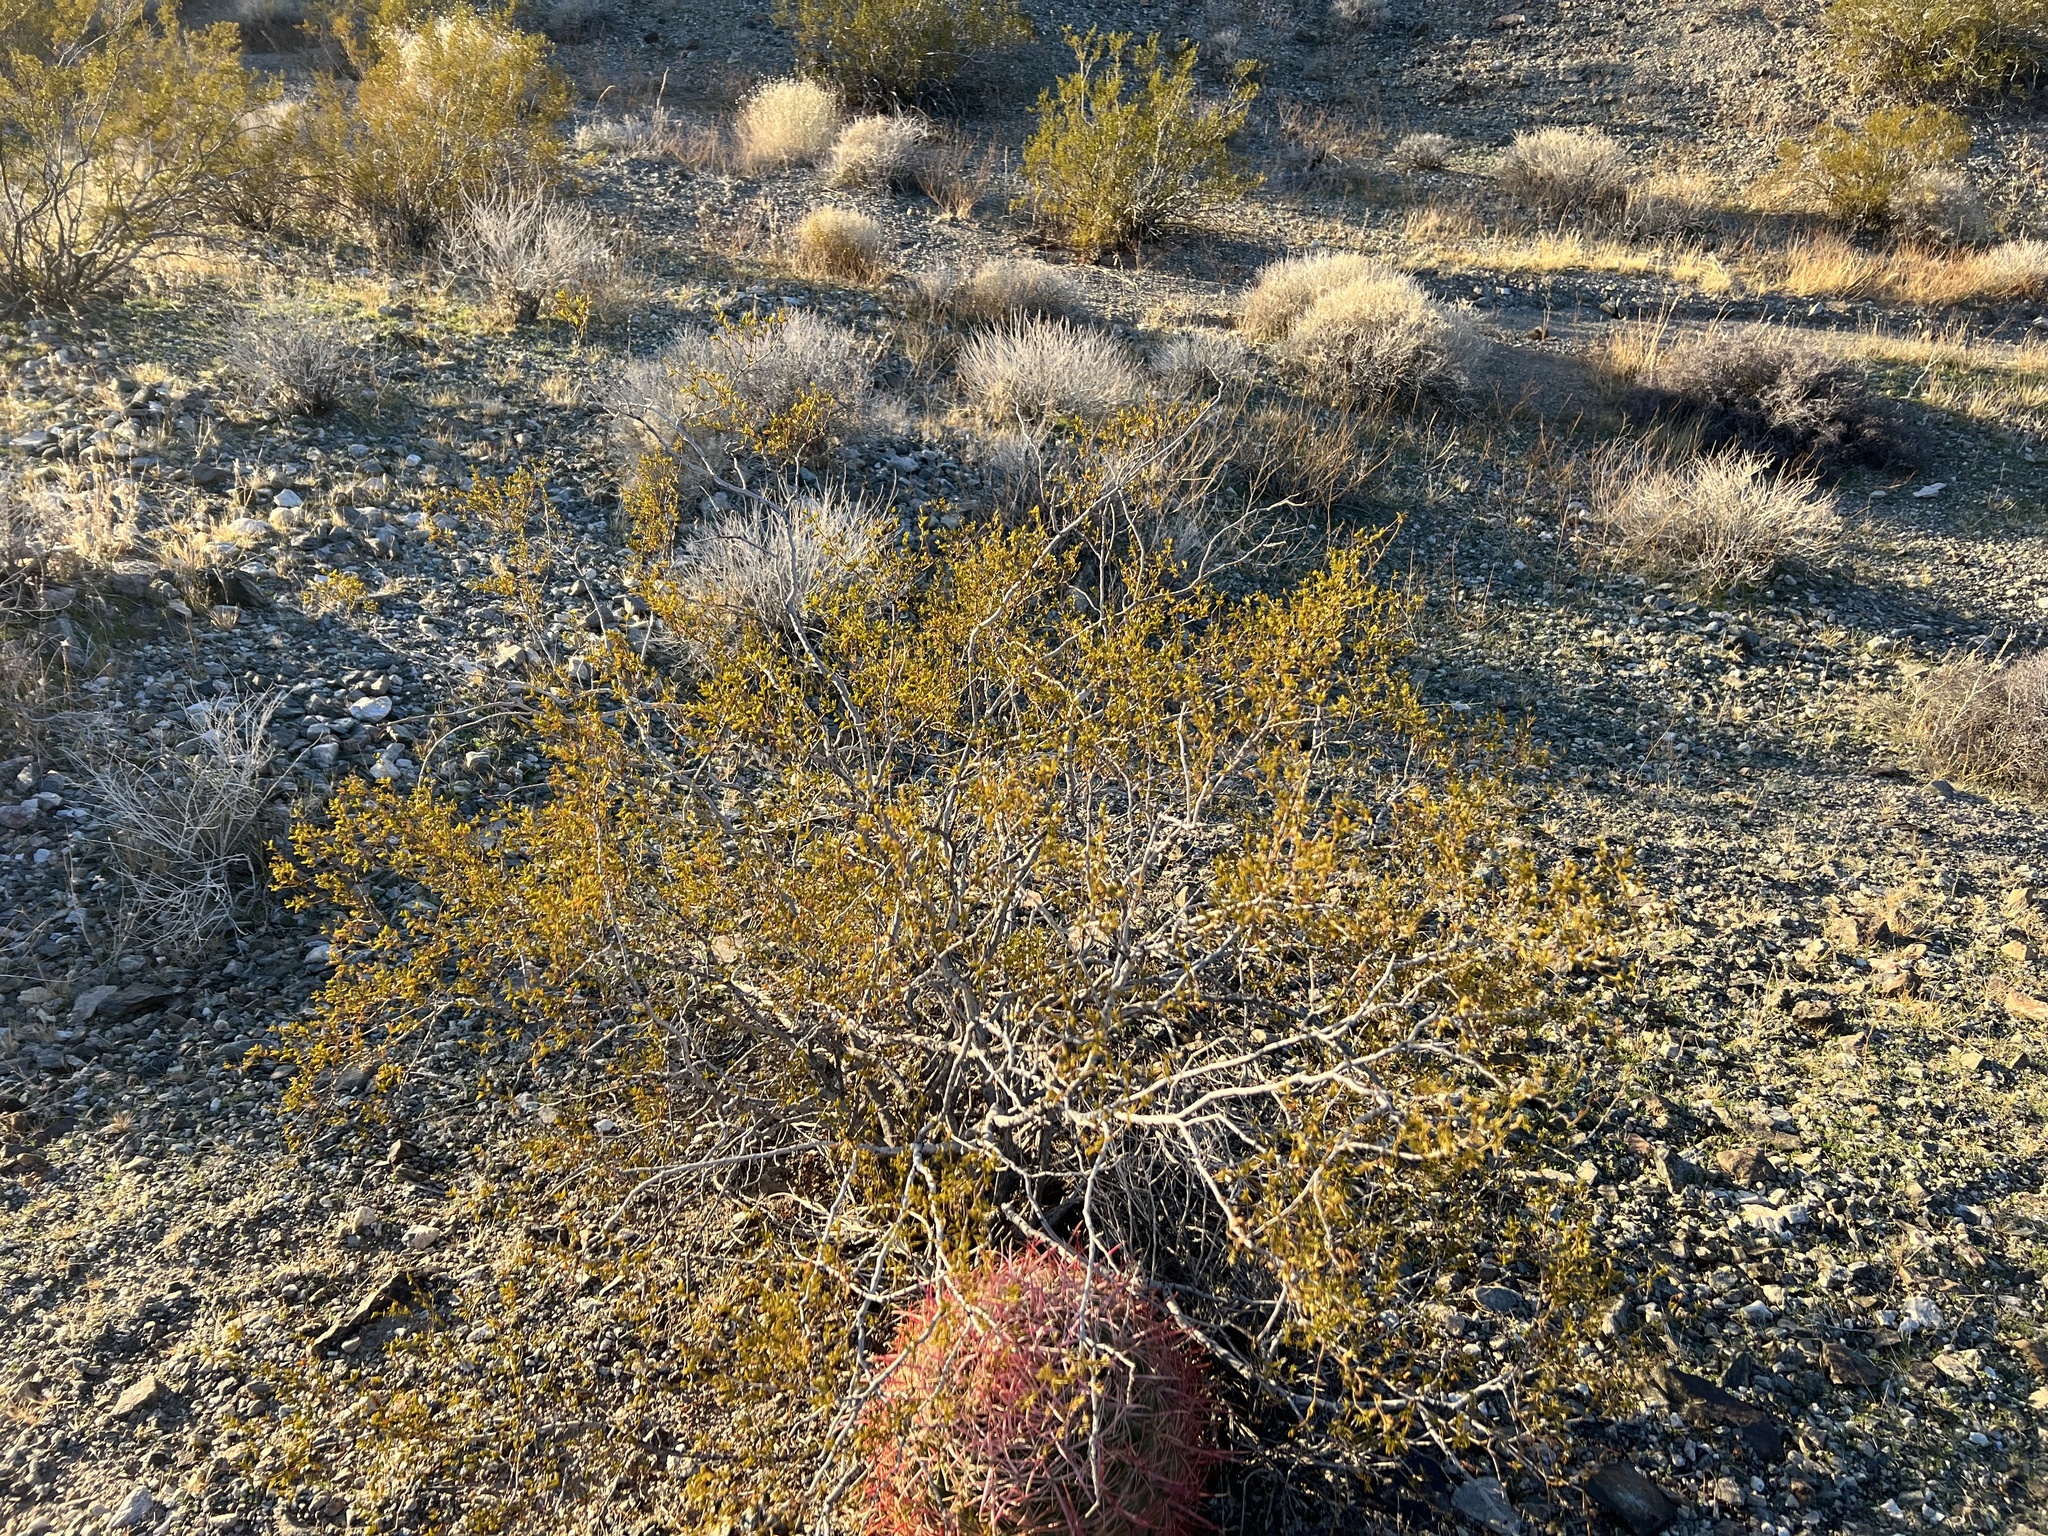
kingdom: Plantae
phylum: Tracheophyta
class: Magnoliopsida
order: Zygophyllales
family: Zygophyllaceae
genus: Larrea
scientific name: Larrea tridentata
